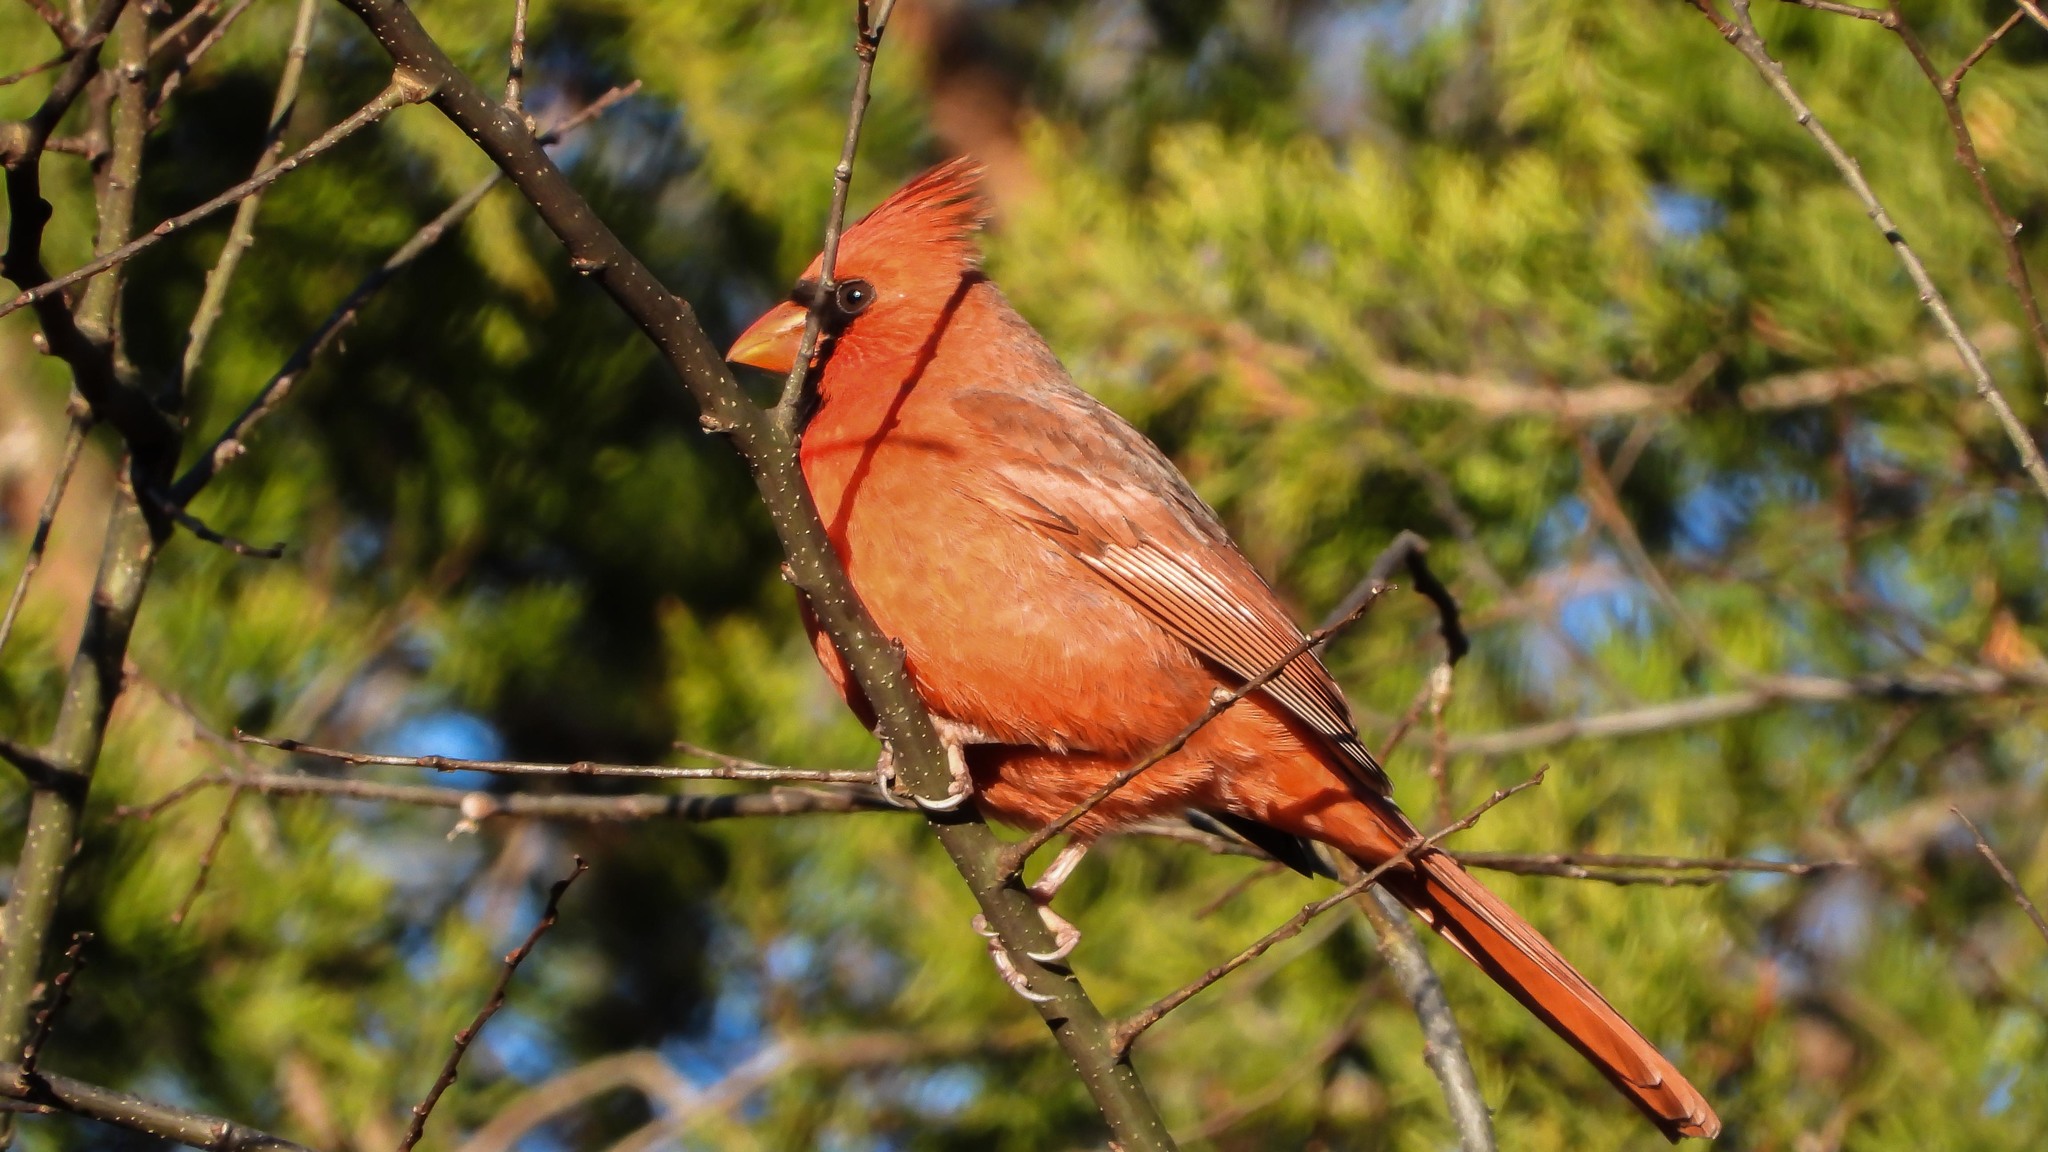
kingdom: Animalia
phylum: Chordata
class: Aves
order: Passeriformes
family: Cardinalidae
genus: Cardinalis
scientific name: Cardinalis cardinalis
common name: Northern cardinal
